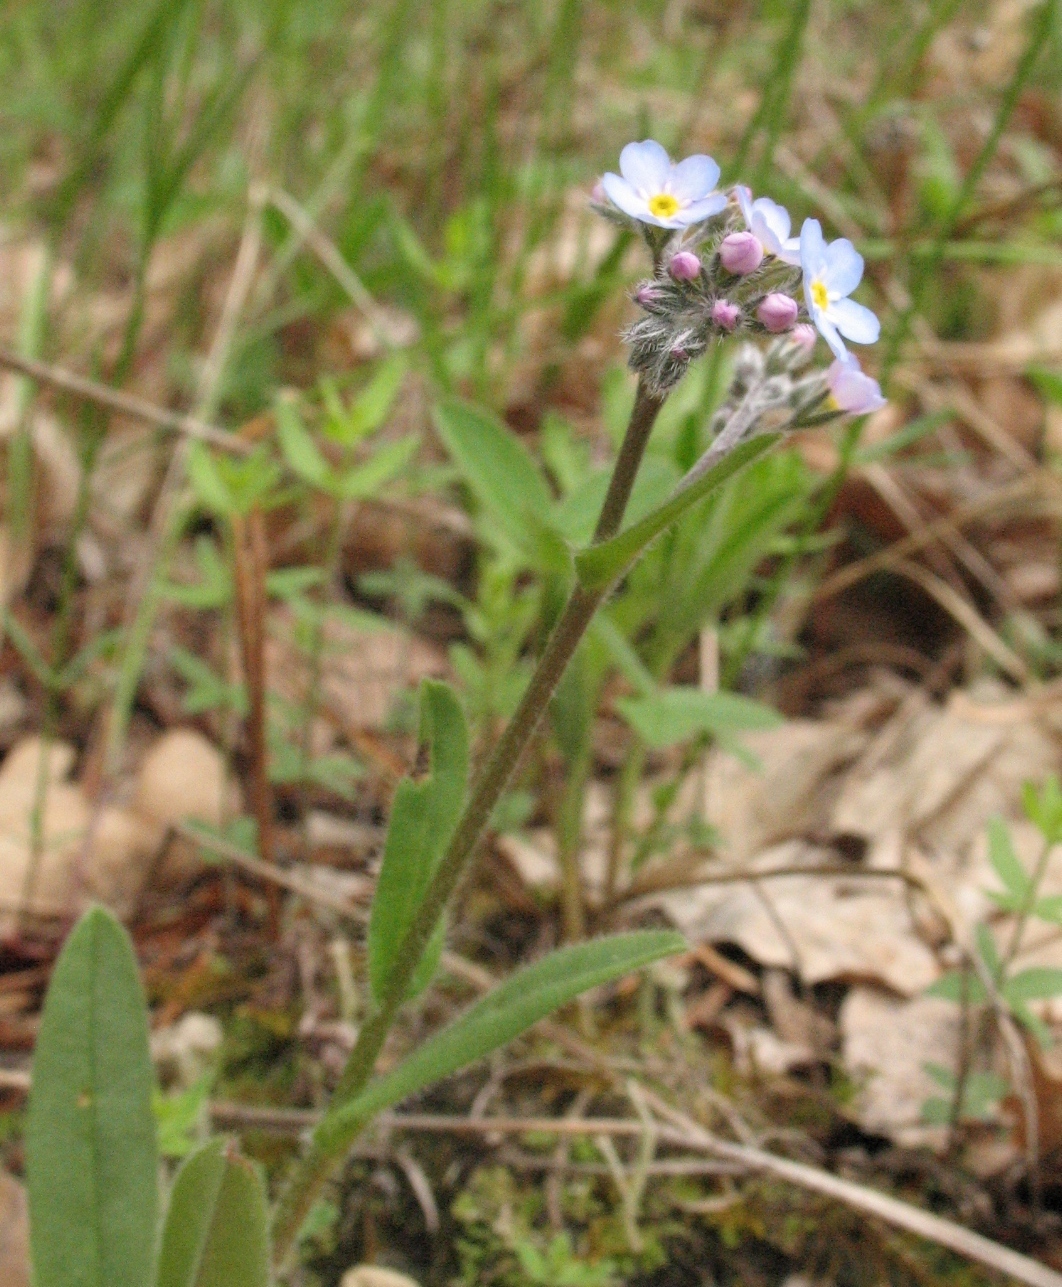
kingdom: Plantae
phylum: Tracheophyta
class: Magnoliopsida
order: Boraginales
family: Boraginaceae
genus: Myosotis
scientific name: Myosotis popovii
